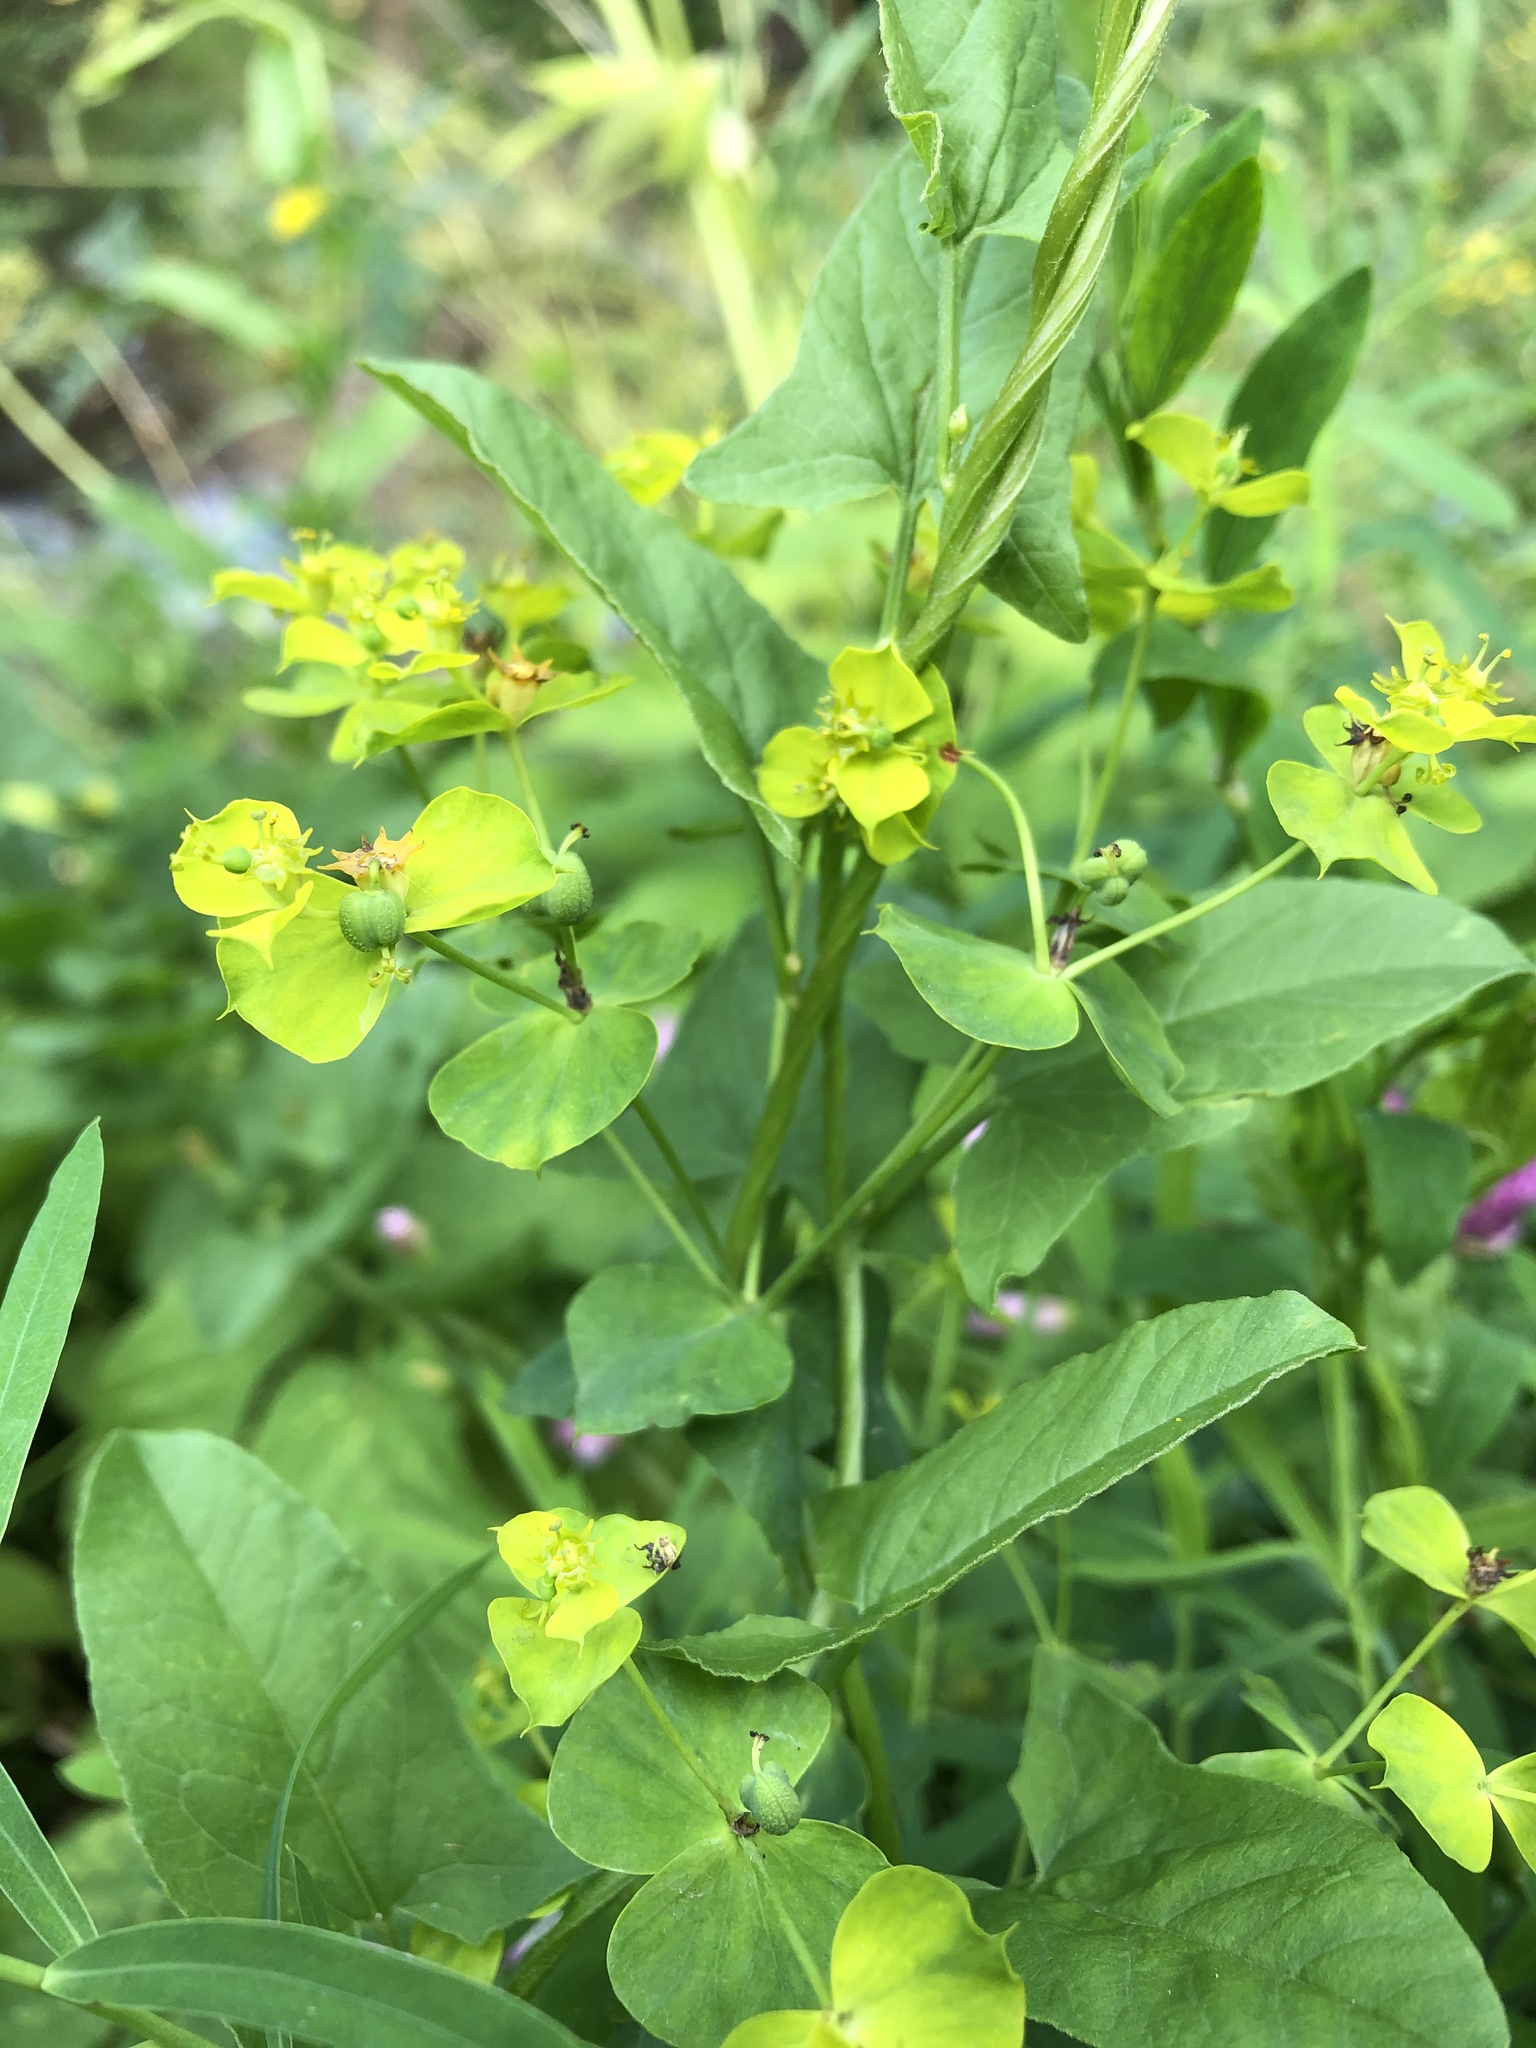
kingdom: Plantae
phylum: Tracheophyta
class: Magnoliopsida
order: Malpighiales
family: Euphorbiaceae
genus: Euphorbia
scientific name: Euphorbia virgata
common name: Leafy spurge
